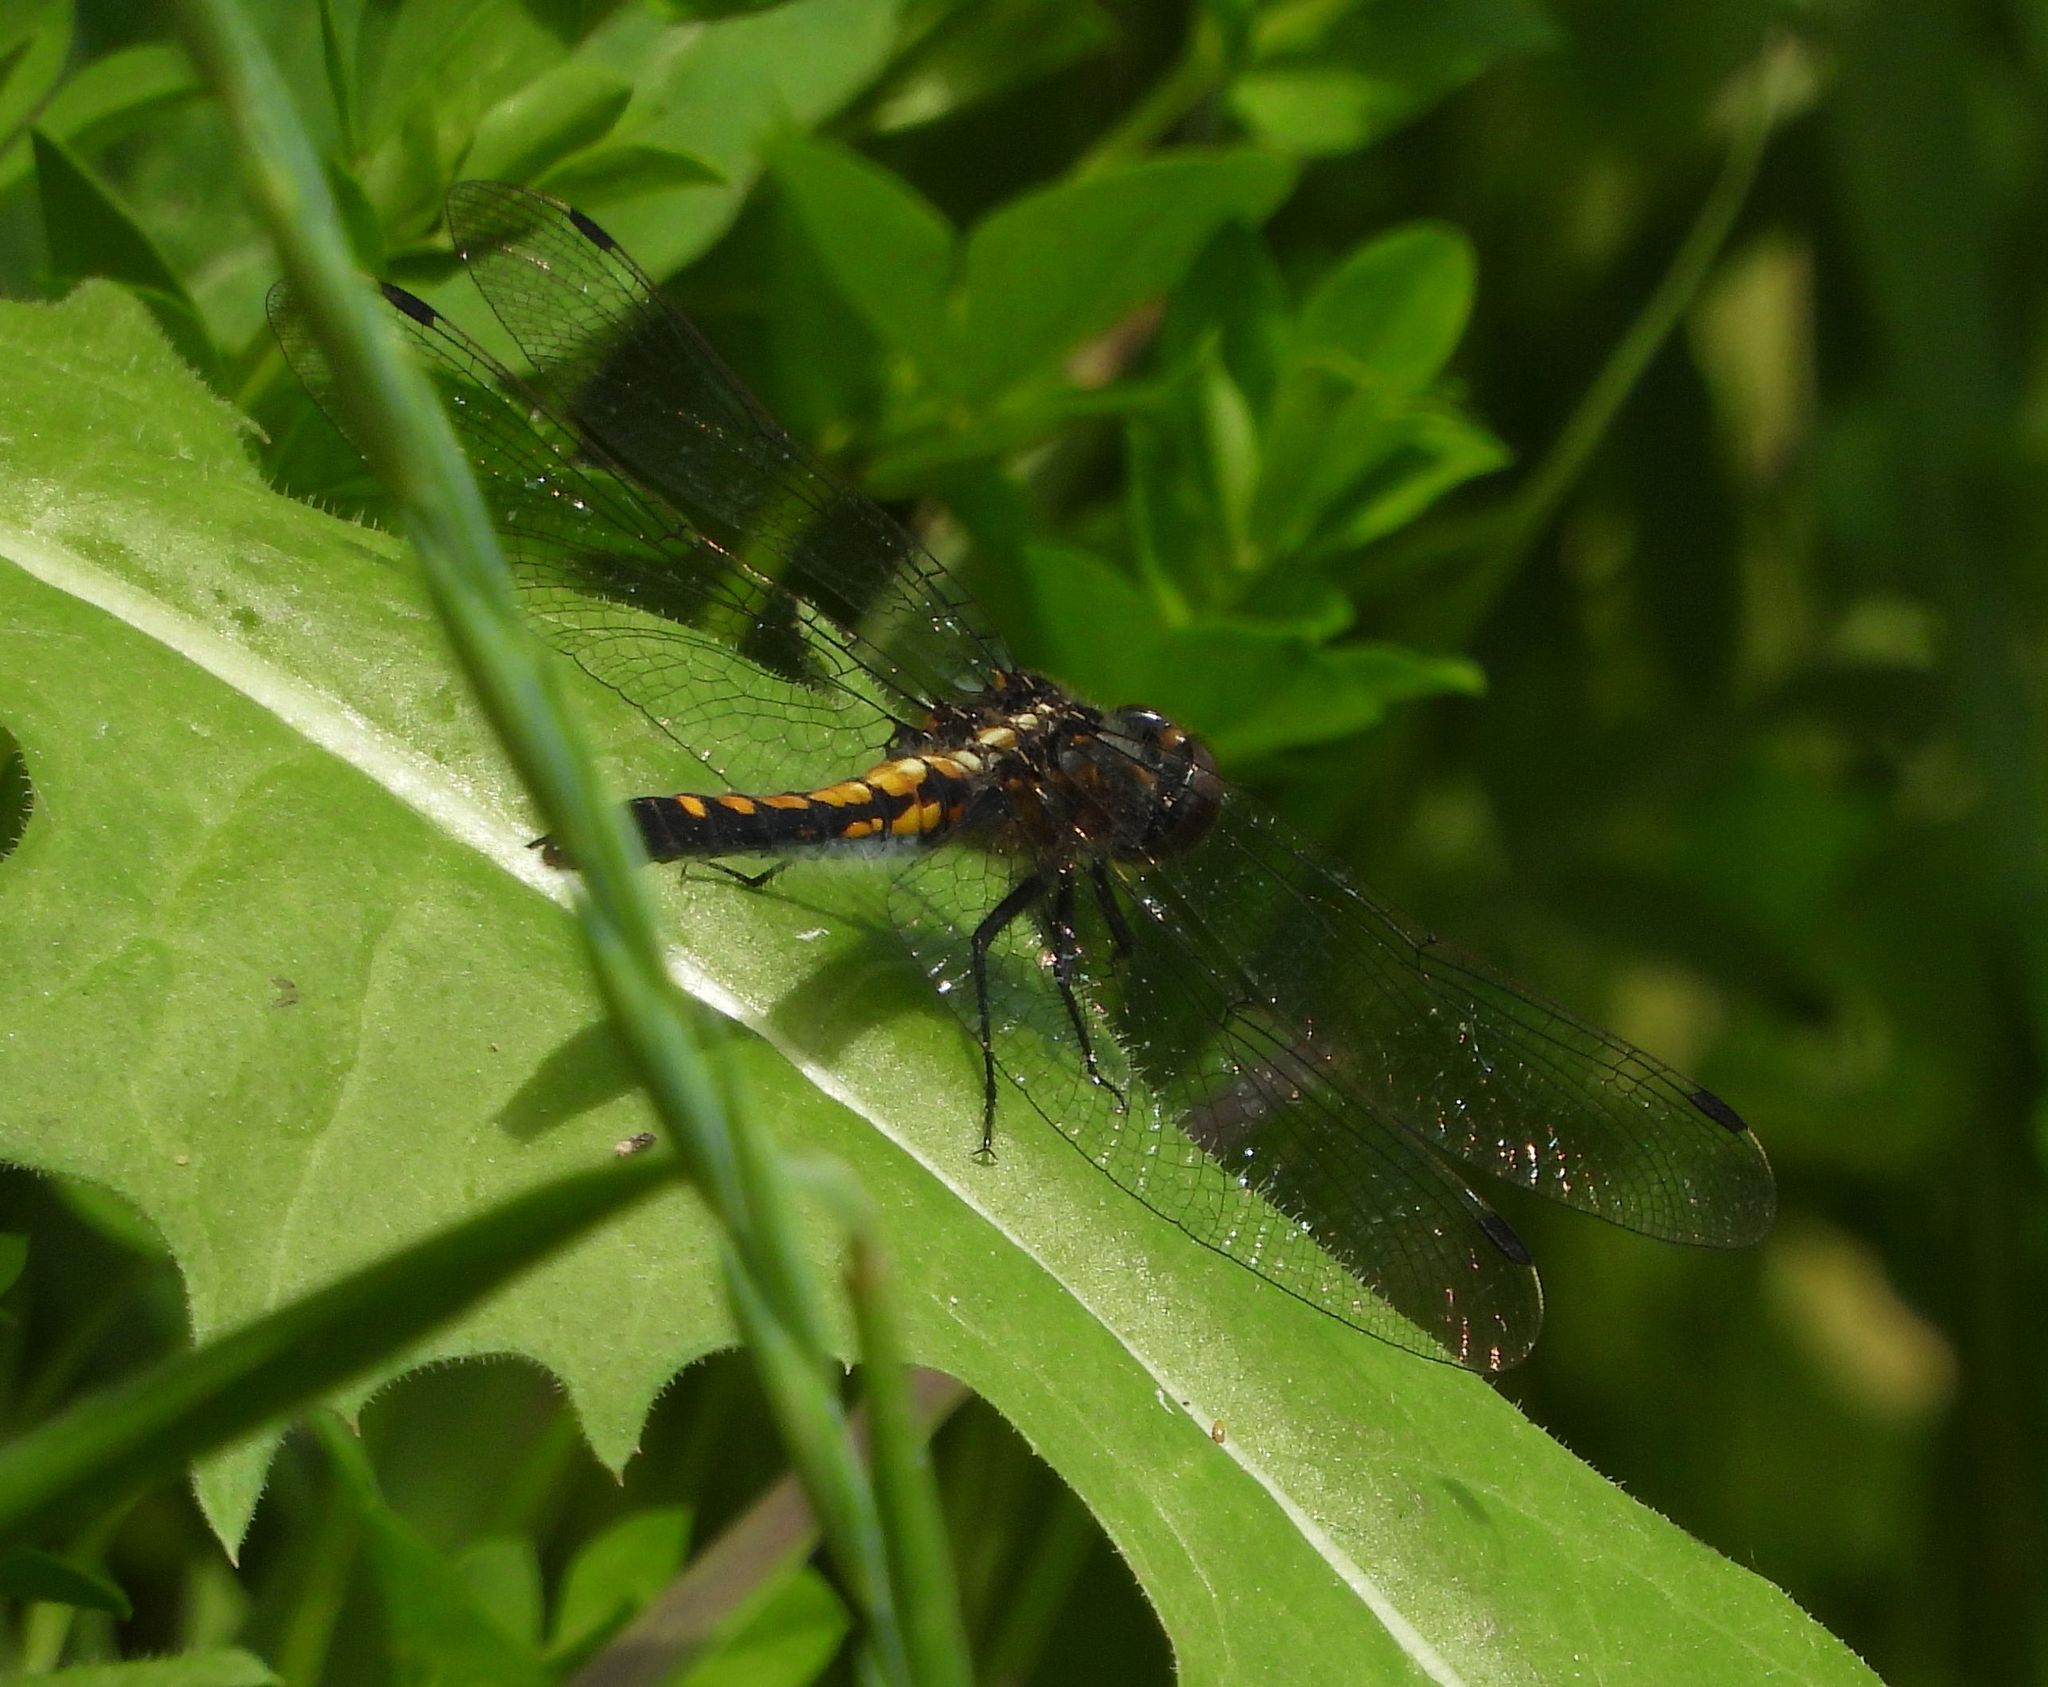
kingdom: Animalia
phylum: Arthropoda
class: Insecta
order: Odonata
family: Libellulidae
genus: Leucorrhinia
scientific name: Leucorrhinia intacta
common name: Dot-tailed whiteface
